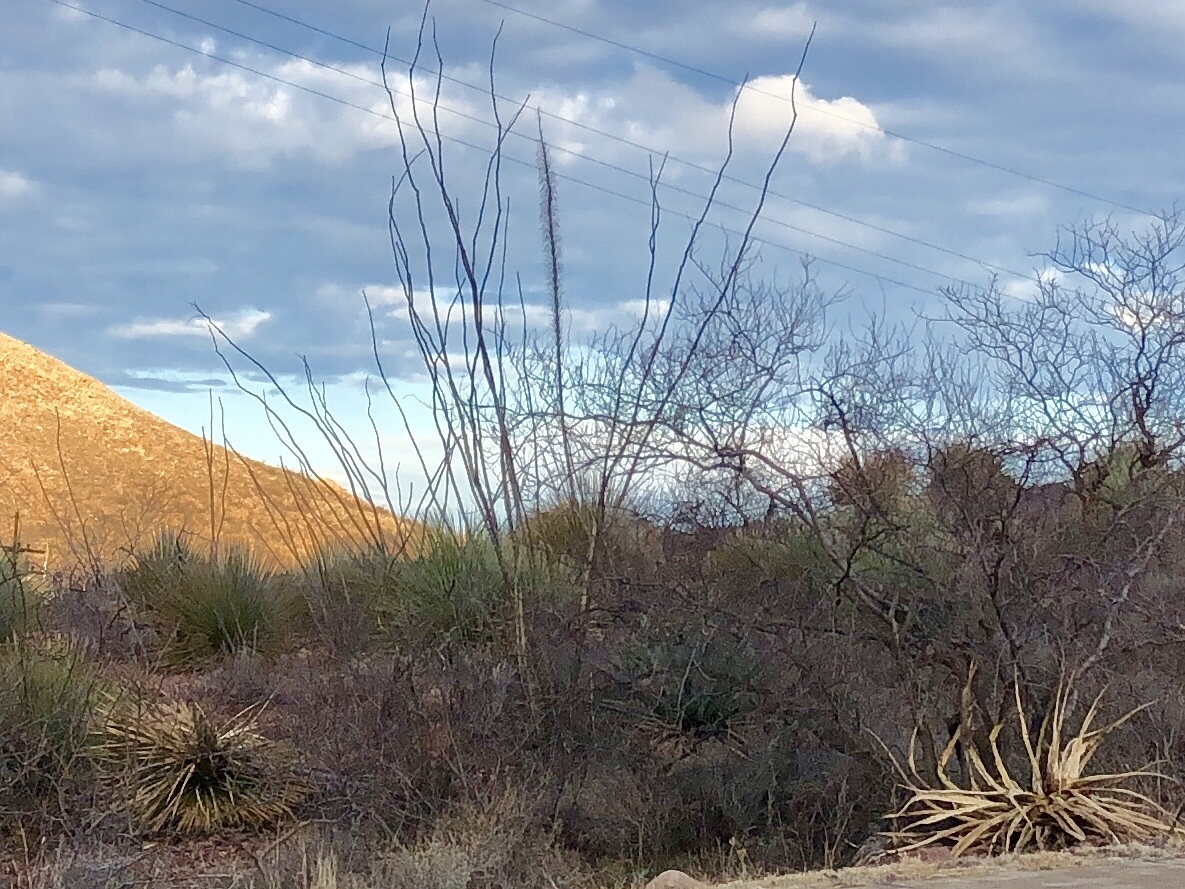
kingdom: Plantae
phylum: Tracheophyta
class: Magnoliopsida
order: Ericales
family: Fouquieriaceae
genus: Fouquieria
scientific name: Fouquieria splendens
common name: Vine-cactus
